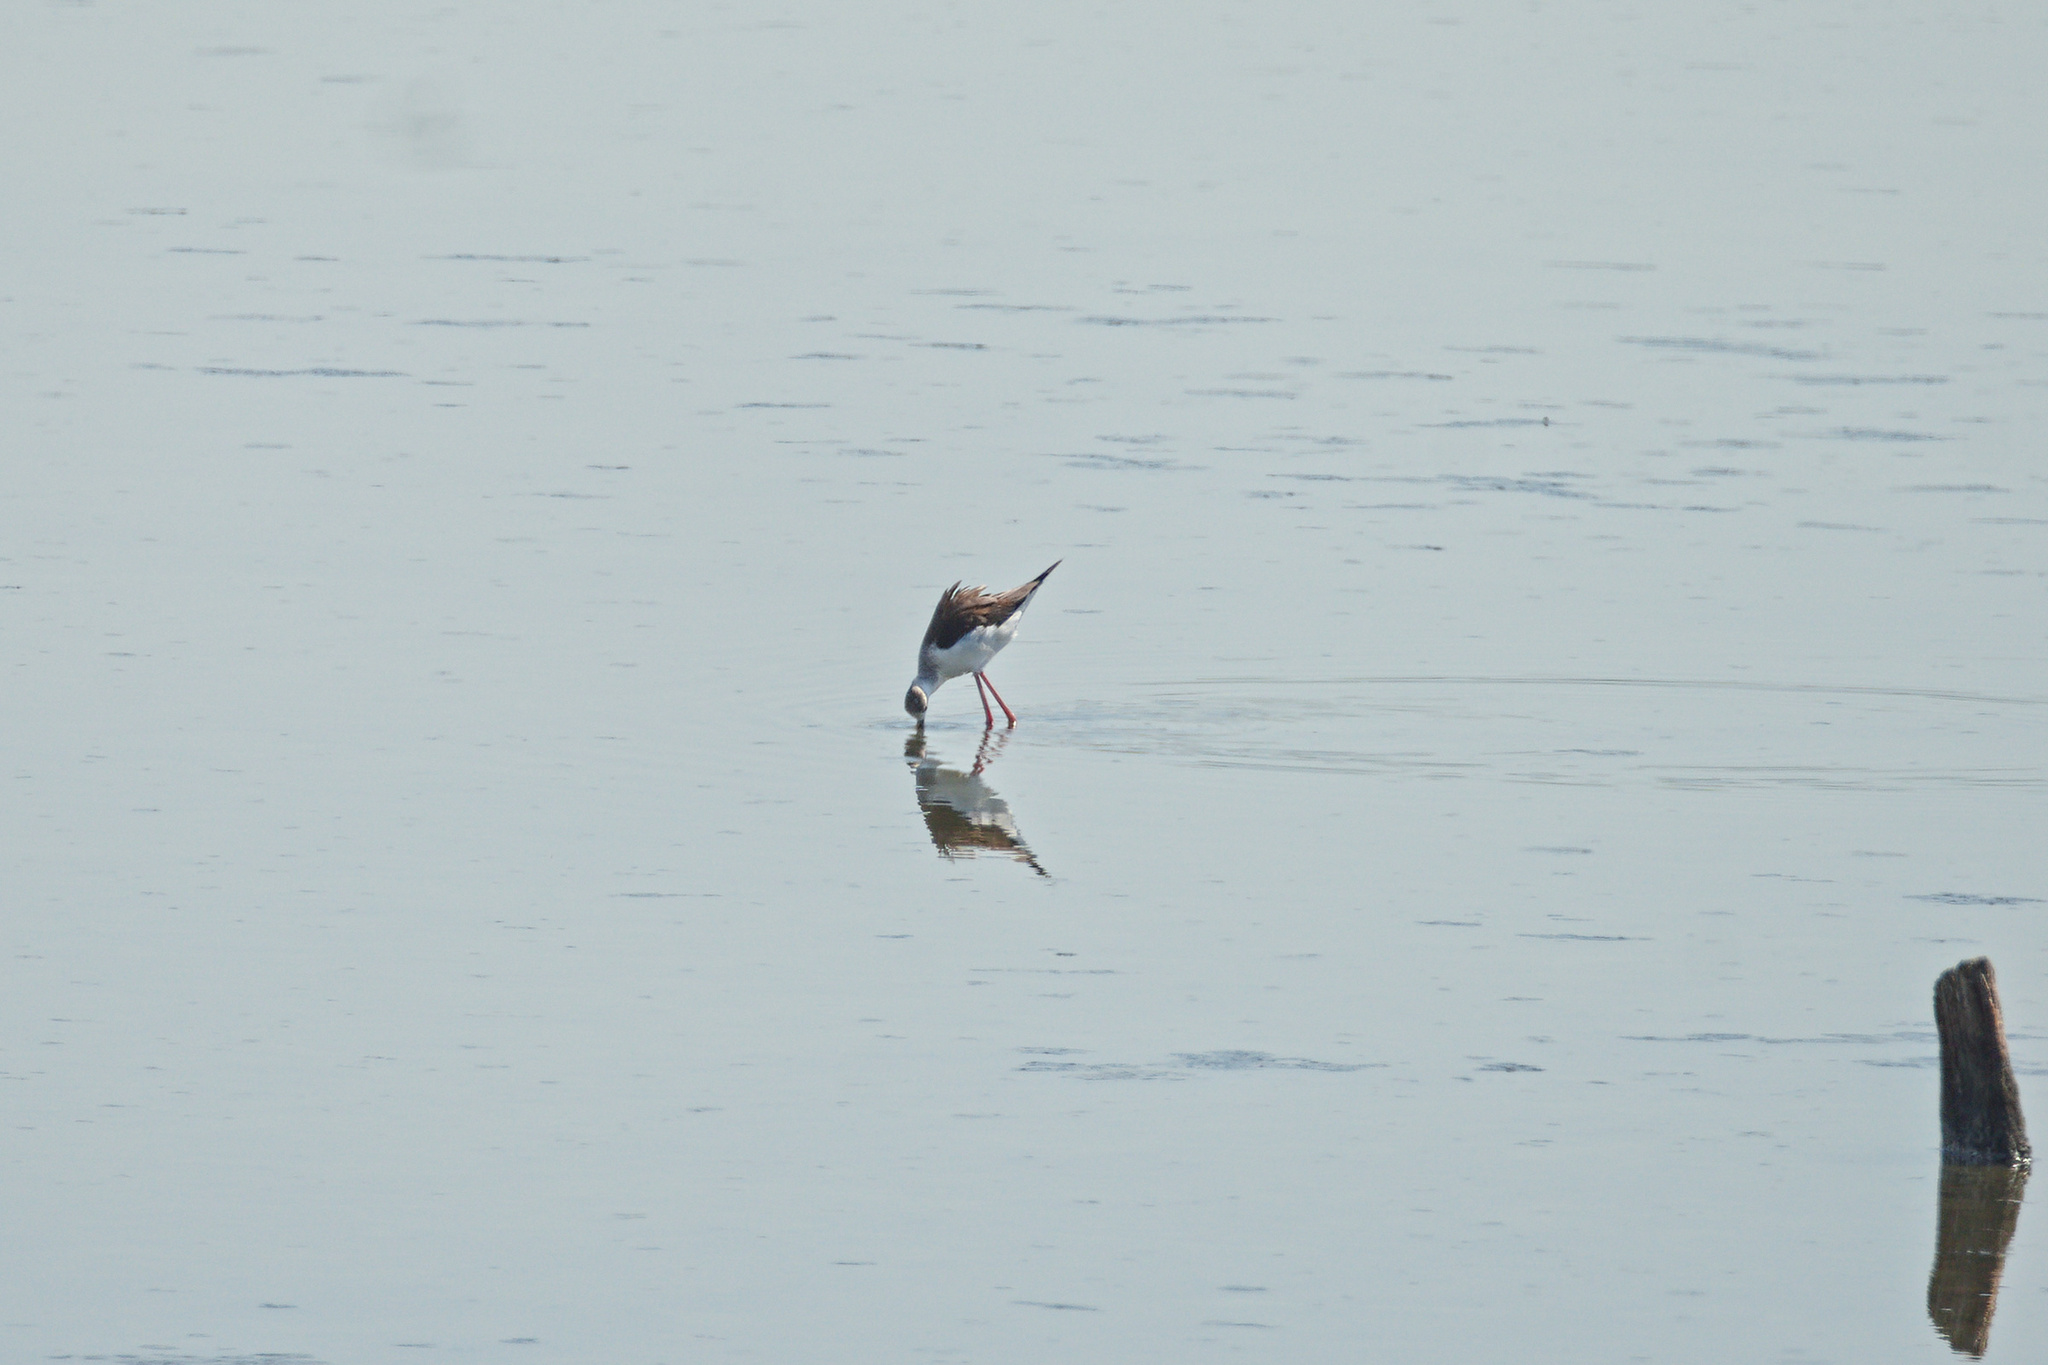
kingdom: Animalia
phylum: Chordata
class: Aves
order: Charadriiformes
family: Recurvirostridae
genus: Himantopus
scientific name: Himantopus himantopus
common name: Black-winged stilt
